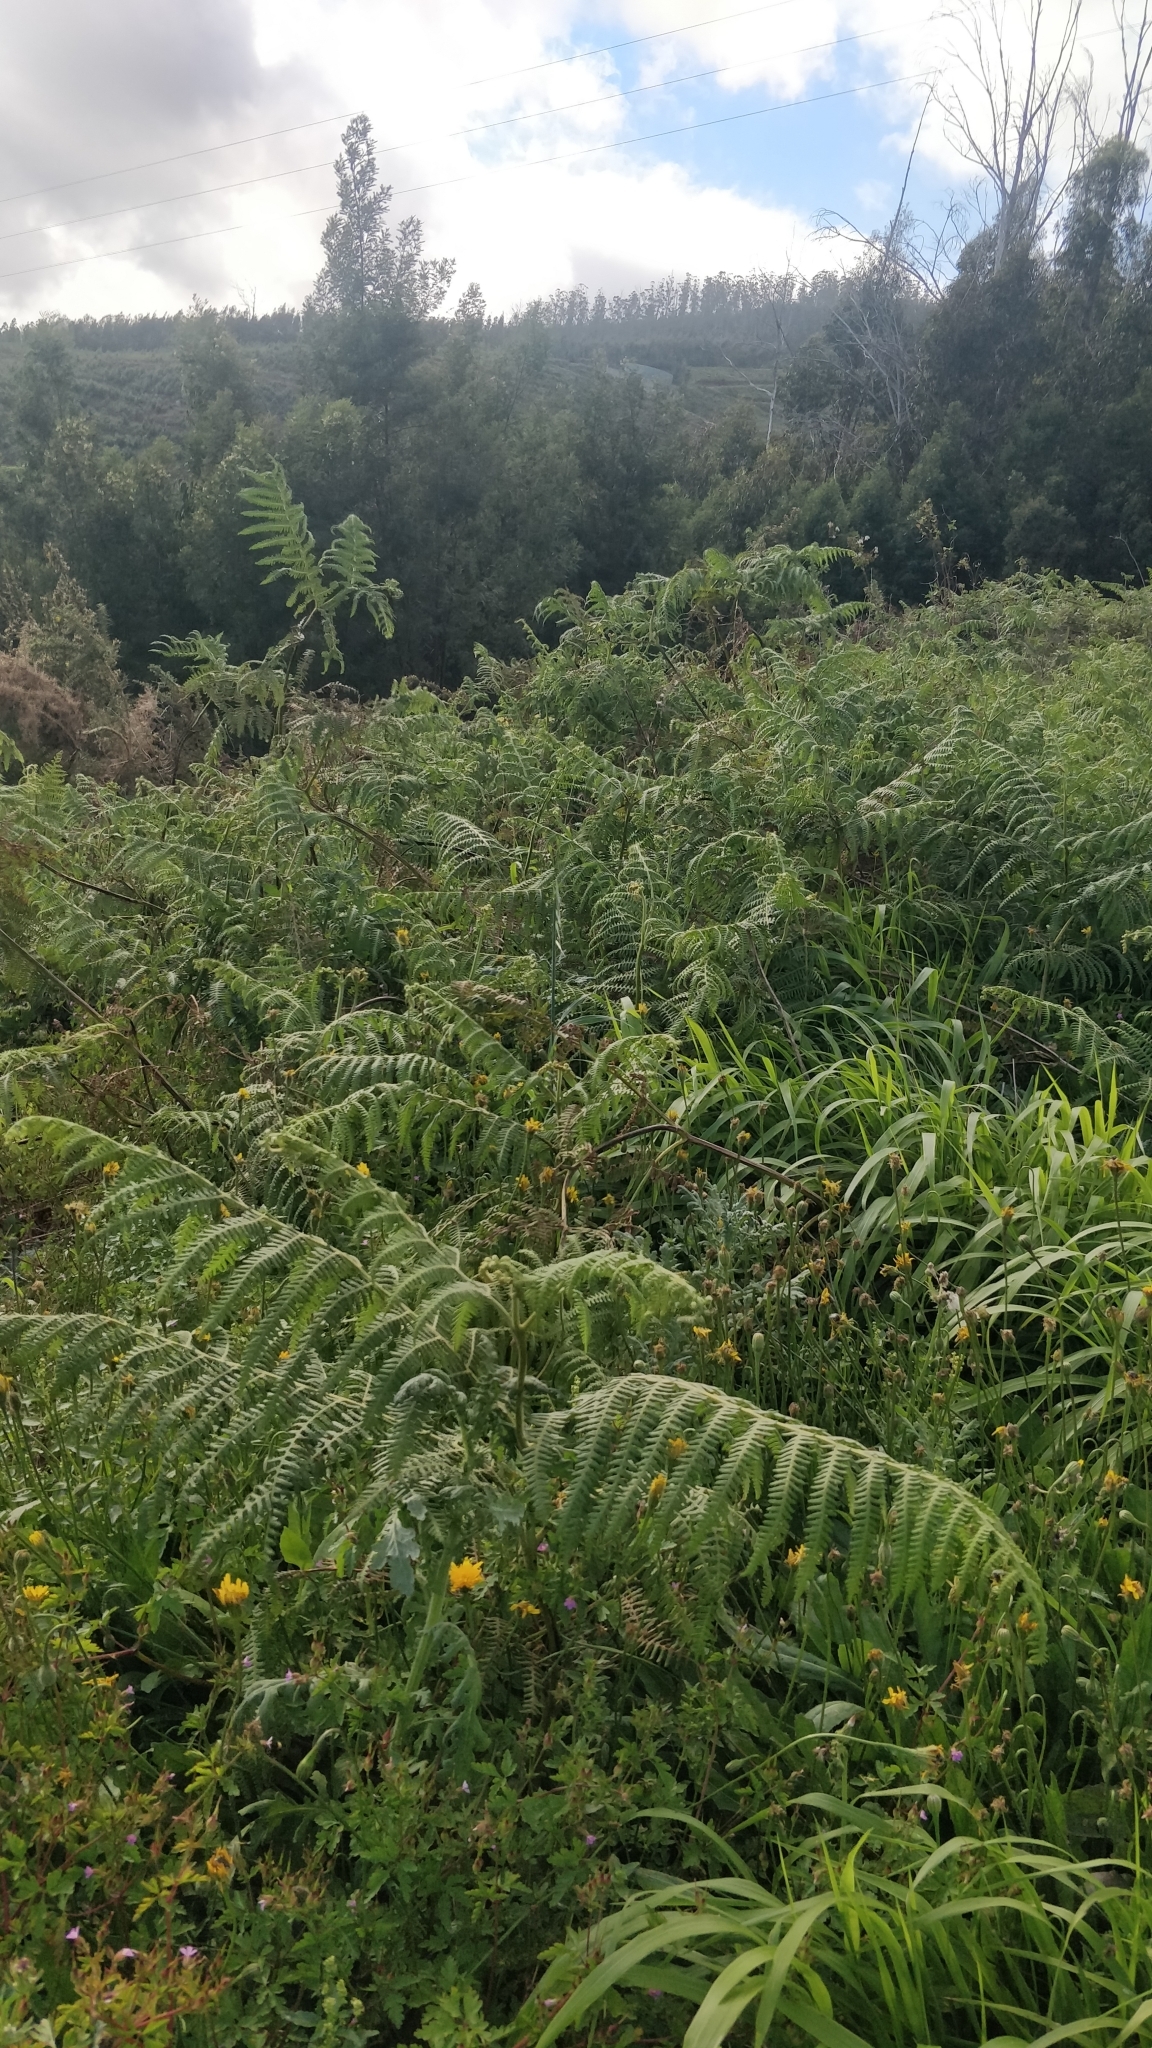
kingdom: Plantae
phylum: Tracheophyta
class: Polypodiopsida
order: Polypodiales
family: Dennstaedtiaceae
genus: Pteridium
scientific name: Pteridium aquilinum
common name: Bracken
